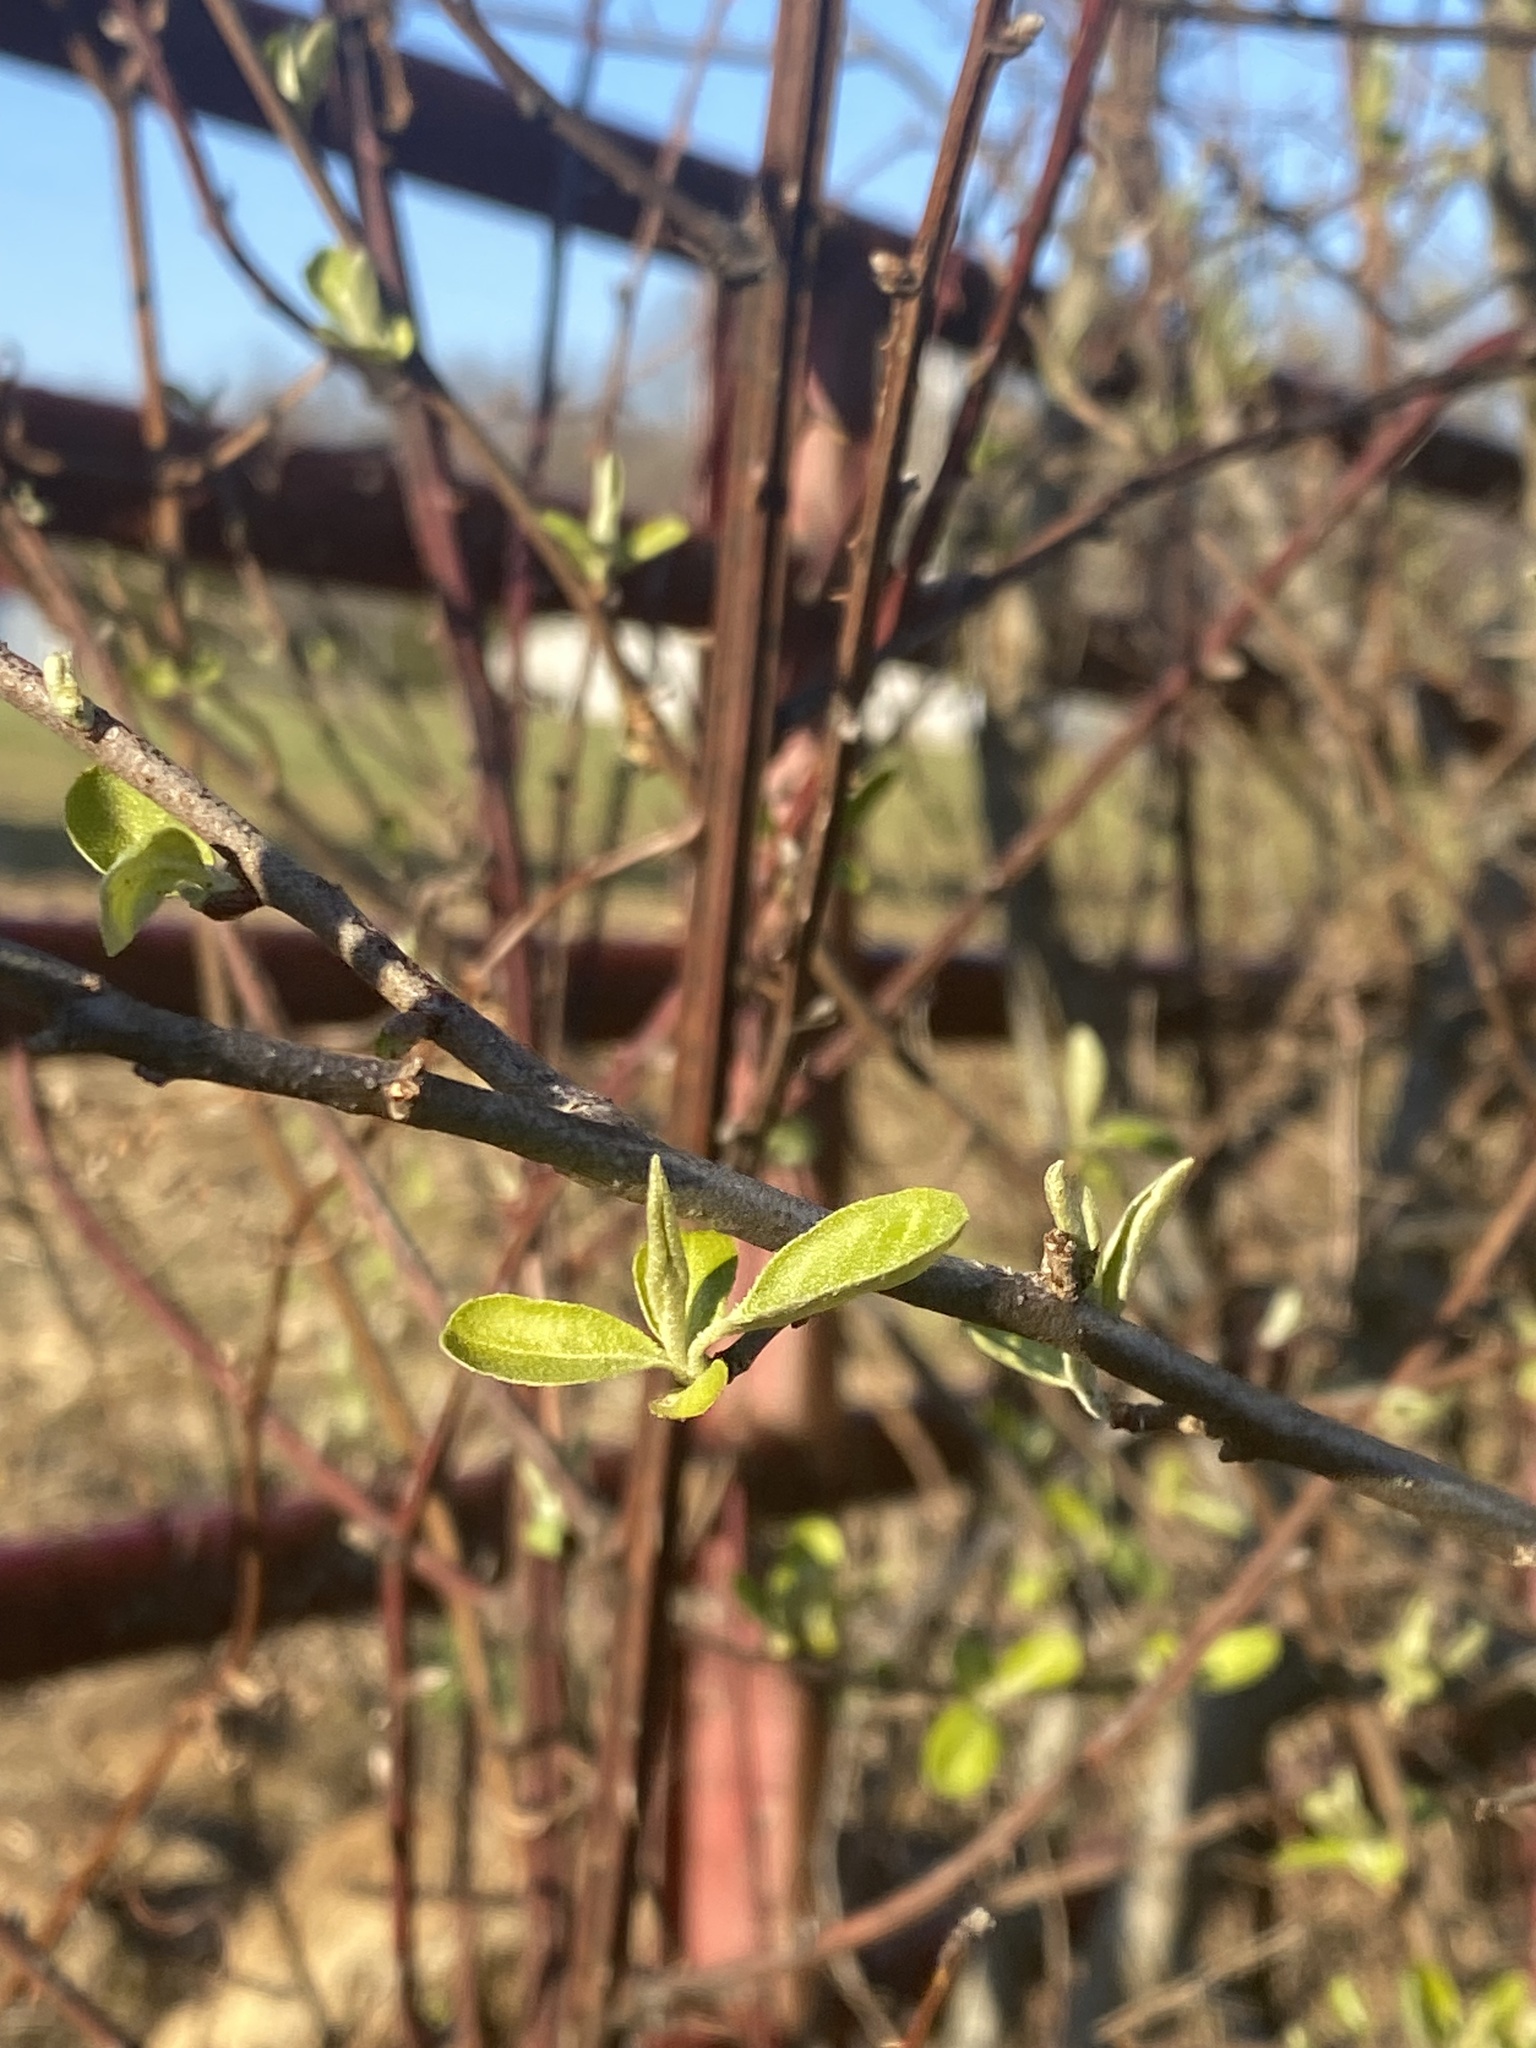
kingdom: Plantae
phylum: Tracheophyta
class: Magnoliopsida
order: Rosales
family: Elaeagnaceae
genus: Elaeagnus
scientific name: Elaeagnus umbellata
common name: Autumn olive
